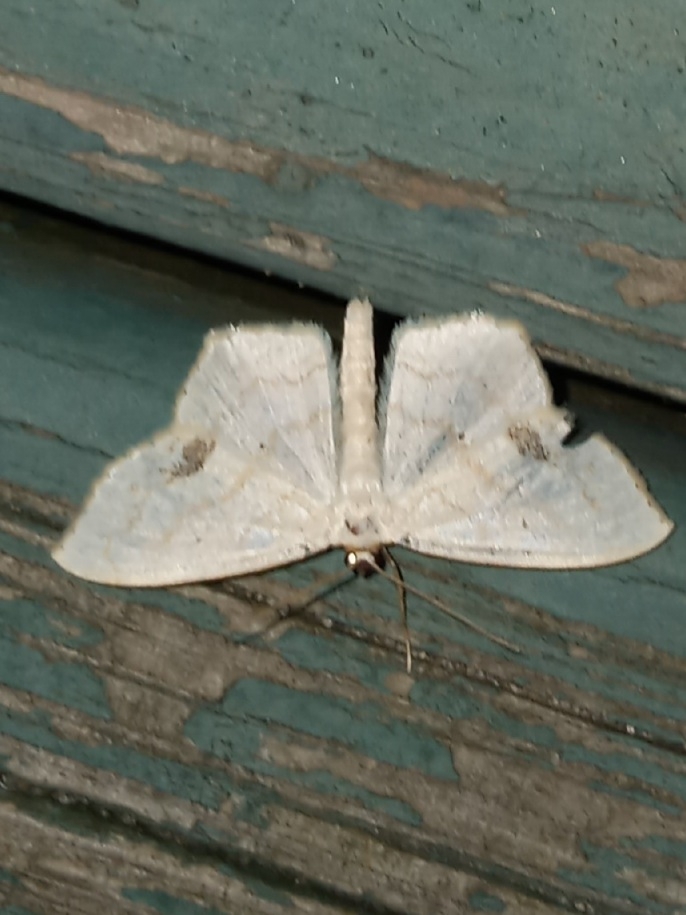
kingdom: Animalia
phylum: Arthropoda
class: Insecta
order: Lepidoptera
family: Geometridae
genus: Scopula
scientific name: Scopula limboundata
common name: Large lace border
